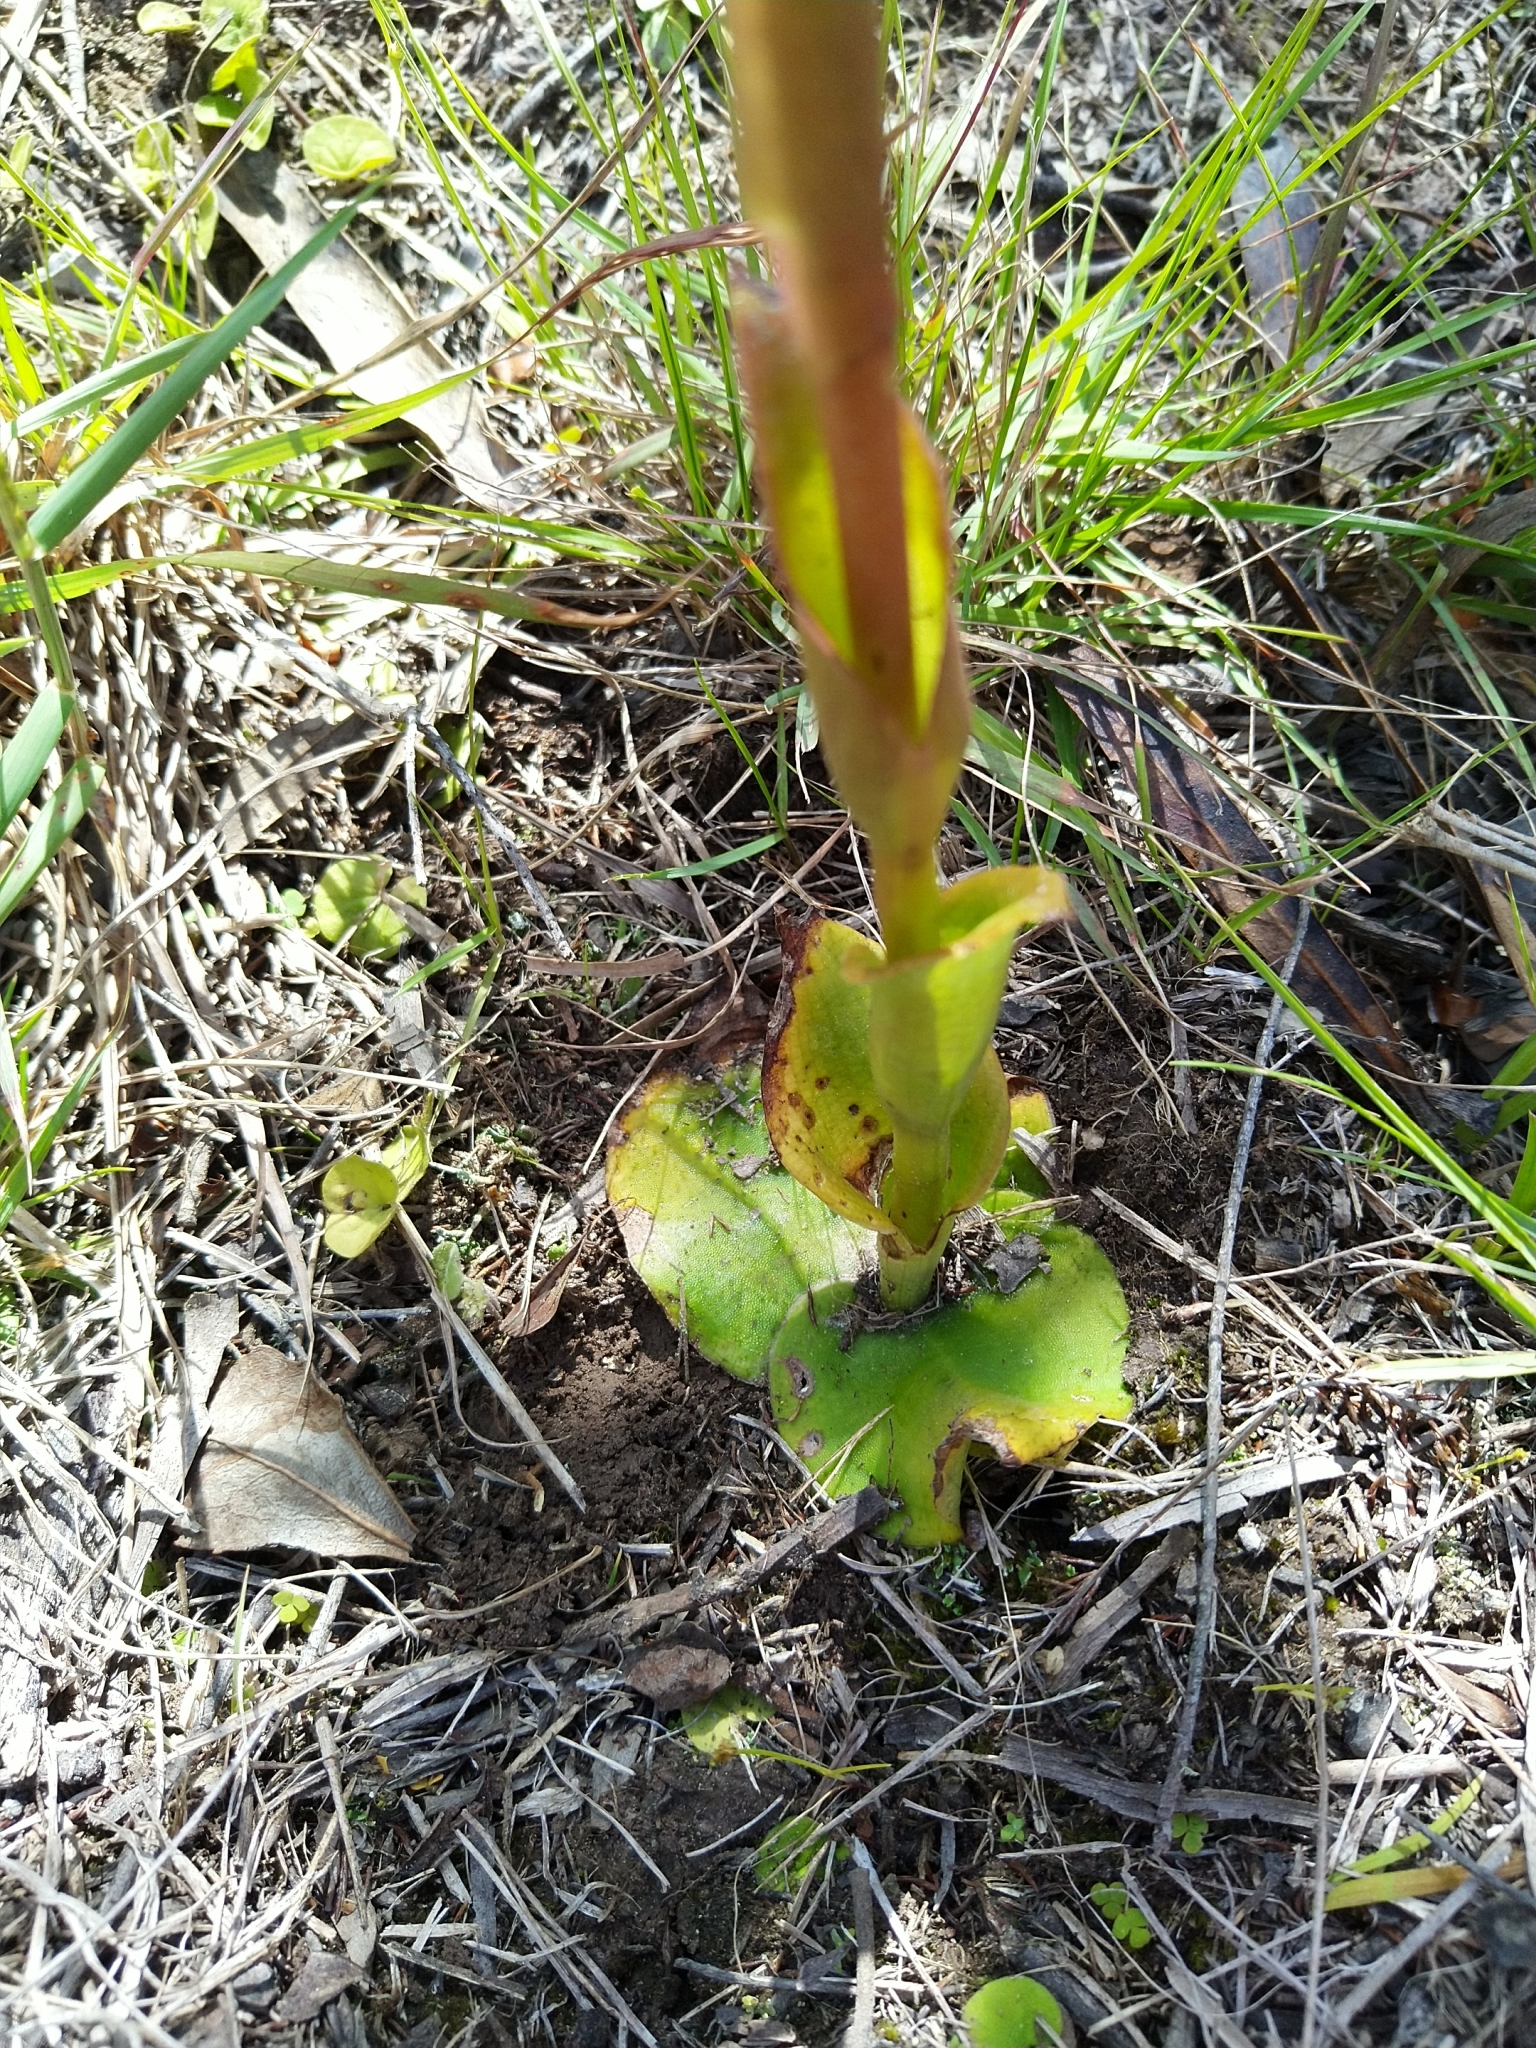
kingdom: Plantae
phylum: Tracheophyta
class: Liliopsida
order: Asparagales
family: Orchidaceae
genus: Satyrium
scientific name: Satyrium acuminatum
